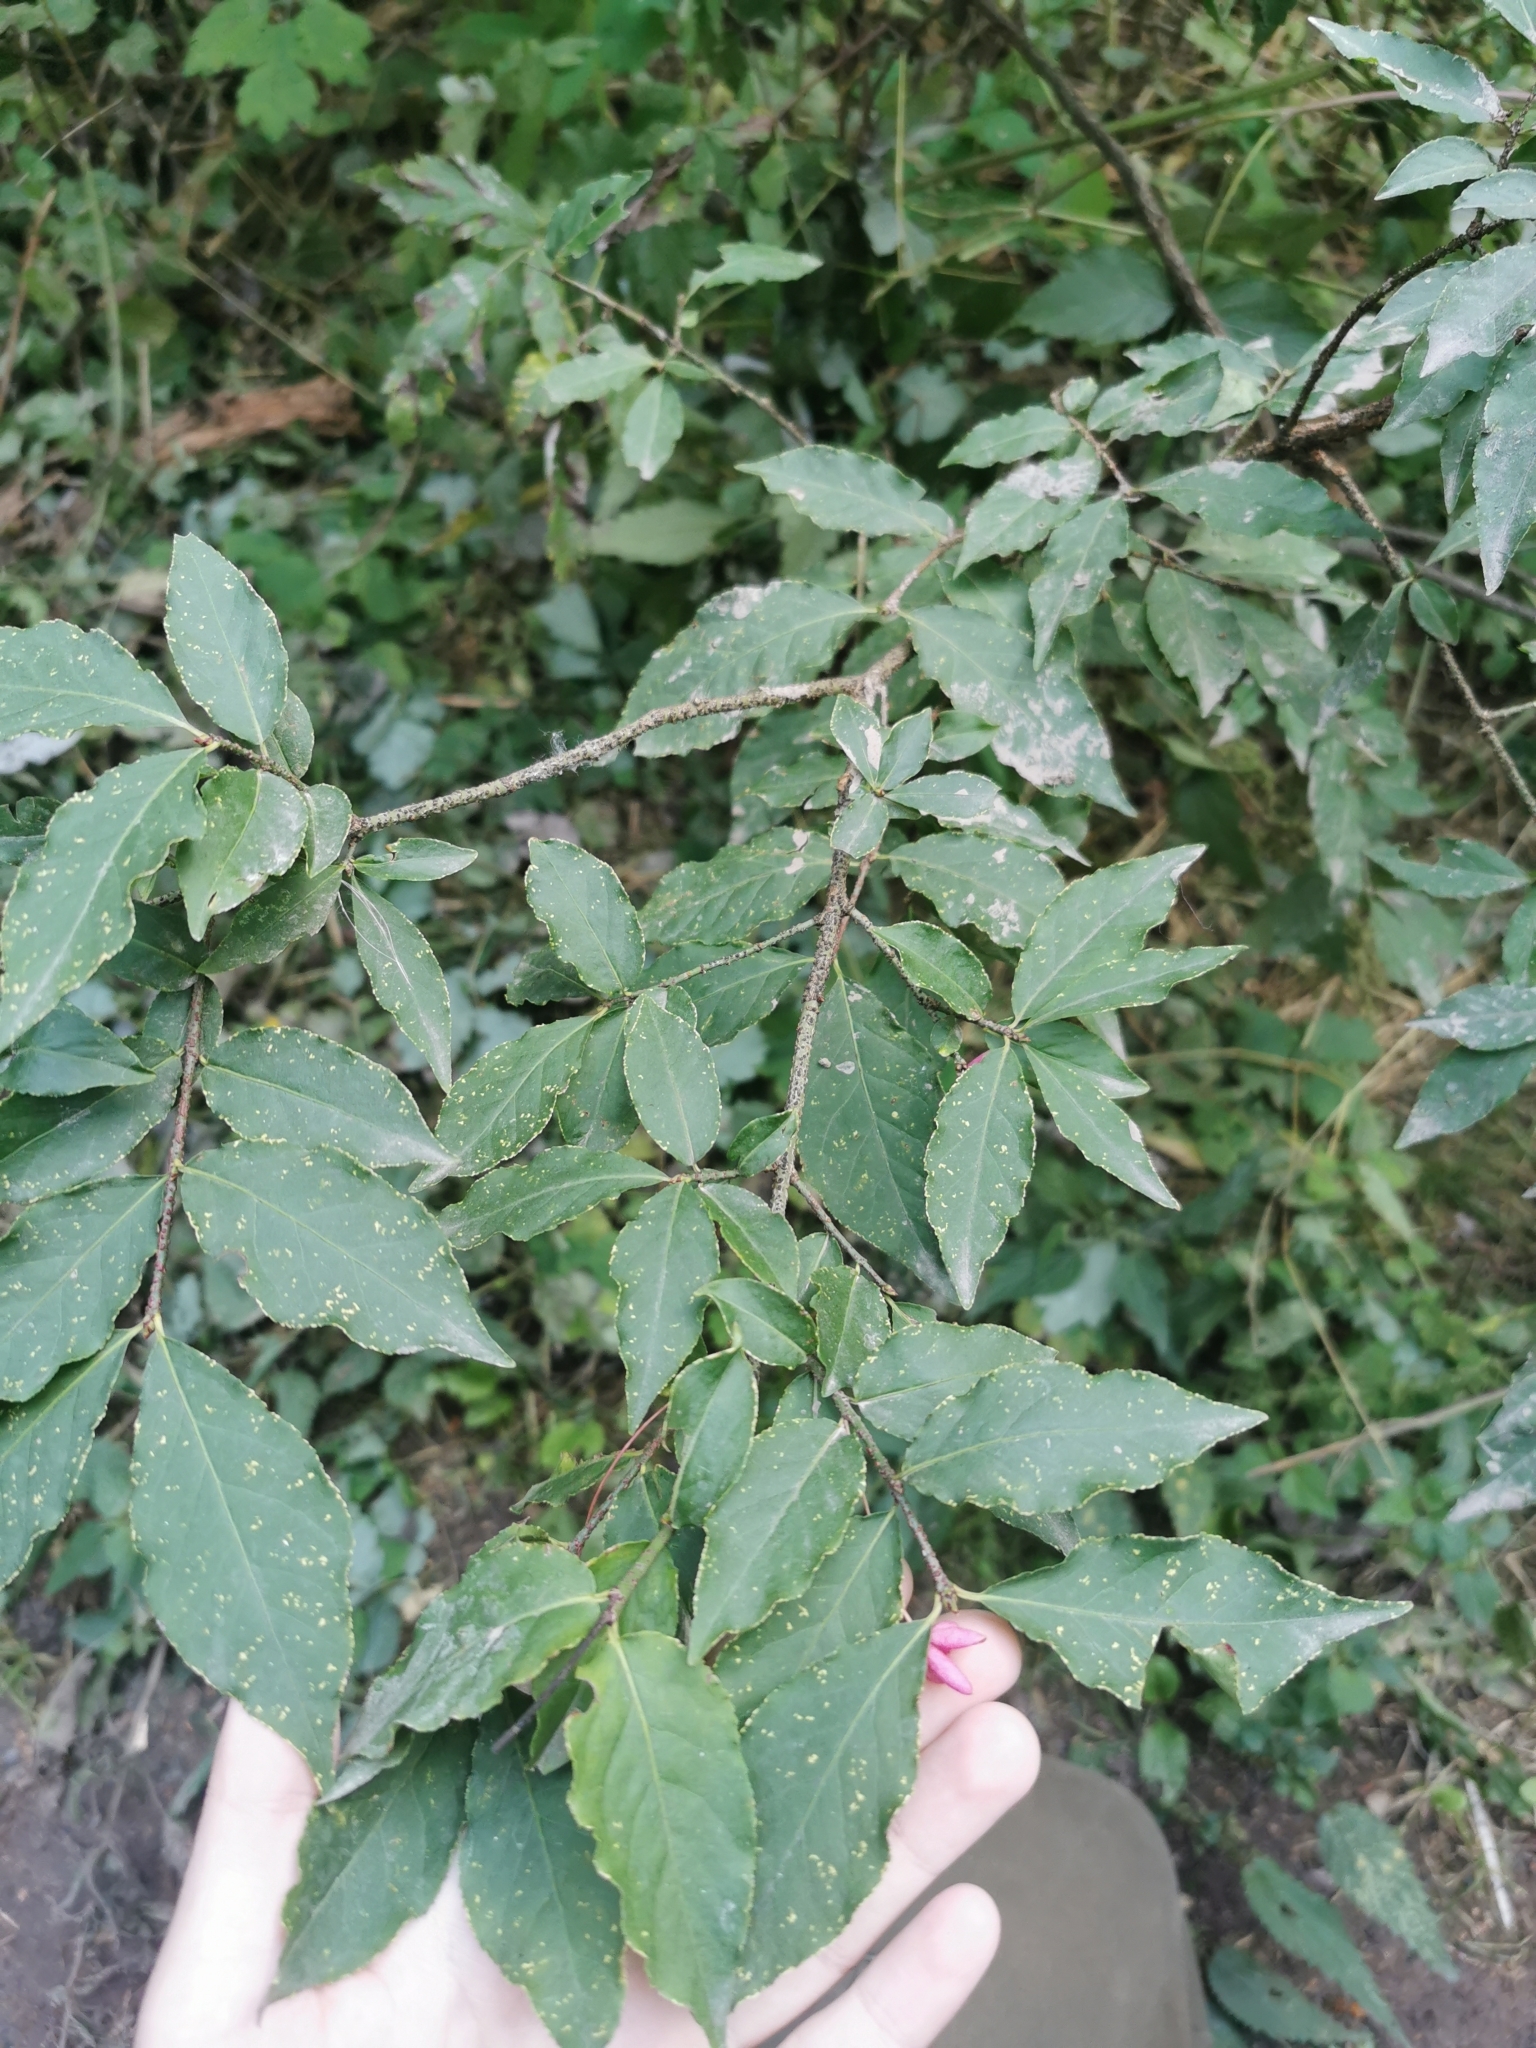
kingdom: Plantae
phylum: Tracheophyta
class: Magnoliopsida
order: Celastrales
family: Celastraceae
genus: Euonymus
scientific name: Euonymus verrucosus
